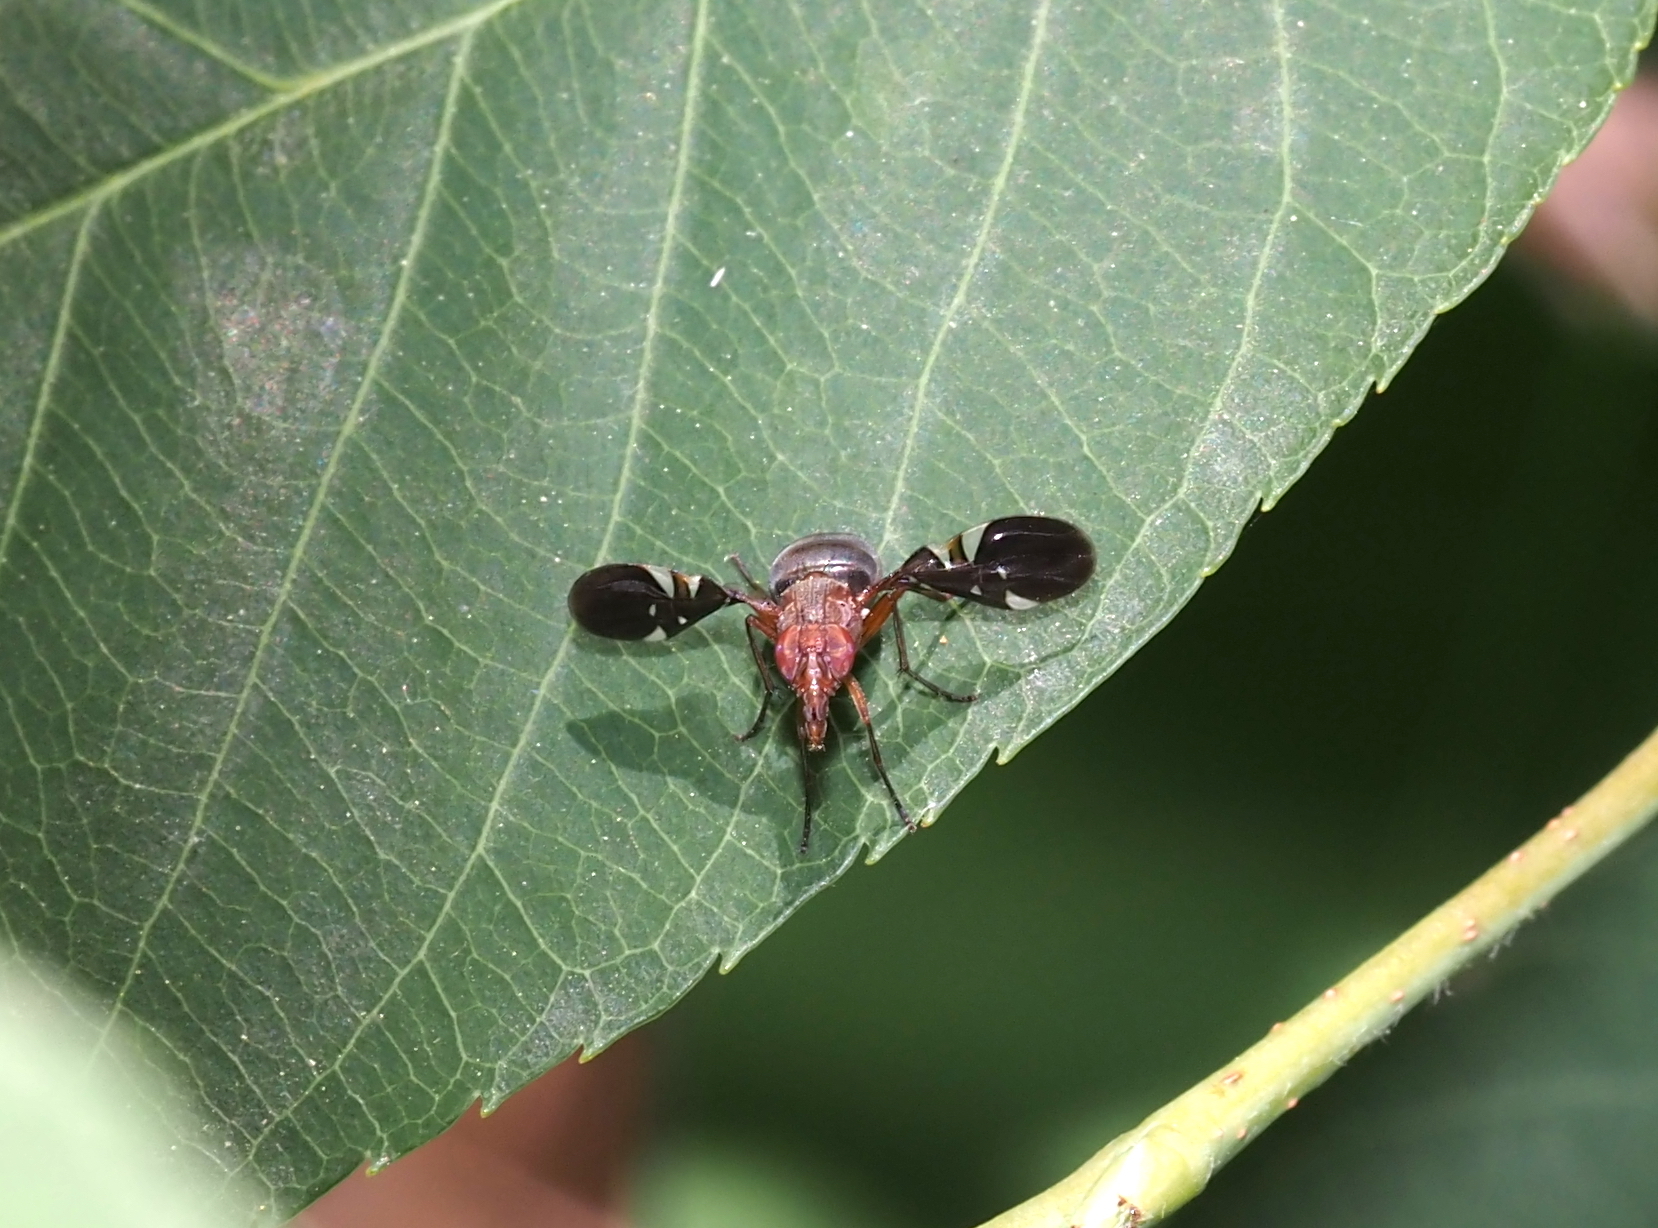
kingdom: Animalia
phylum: Arthropoda
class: Insecta
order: Diptera
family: Ulidiidae
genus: Delphinia
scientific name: Delphinia picta
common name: Common picture-winged fly
